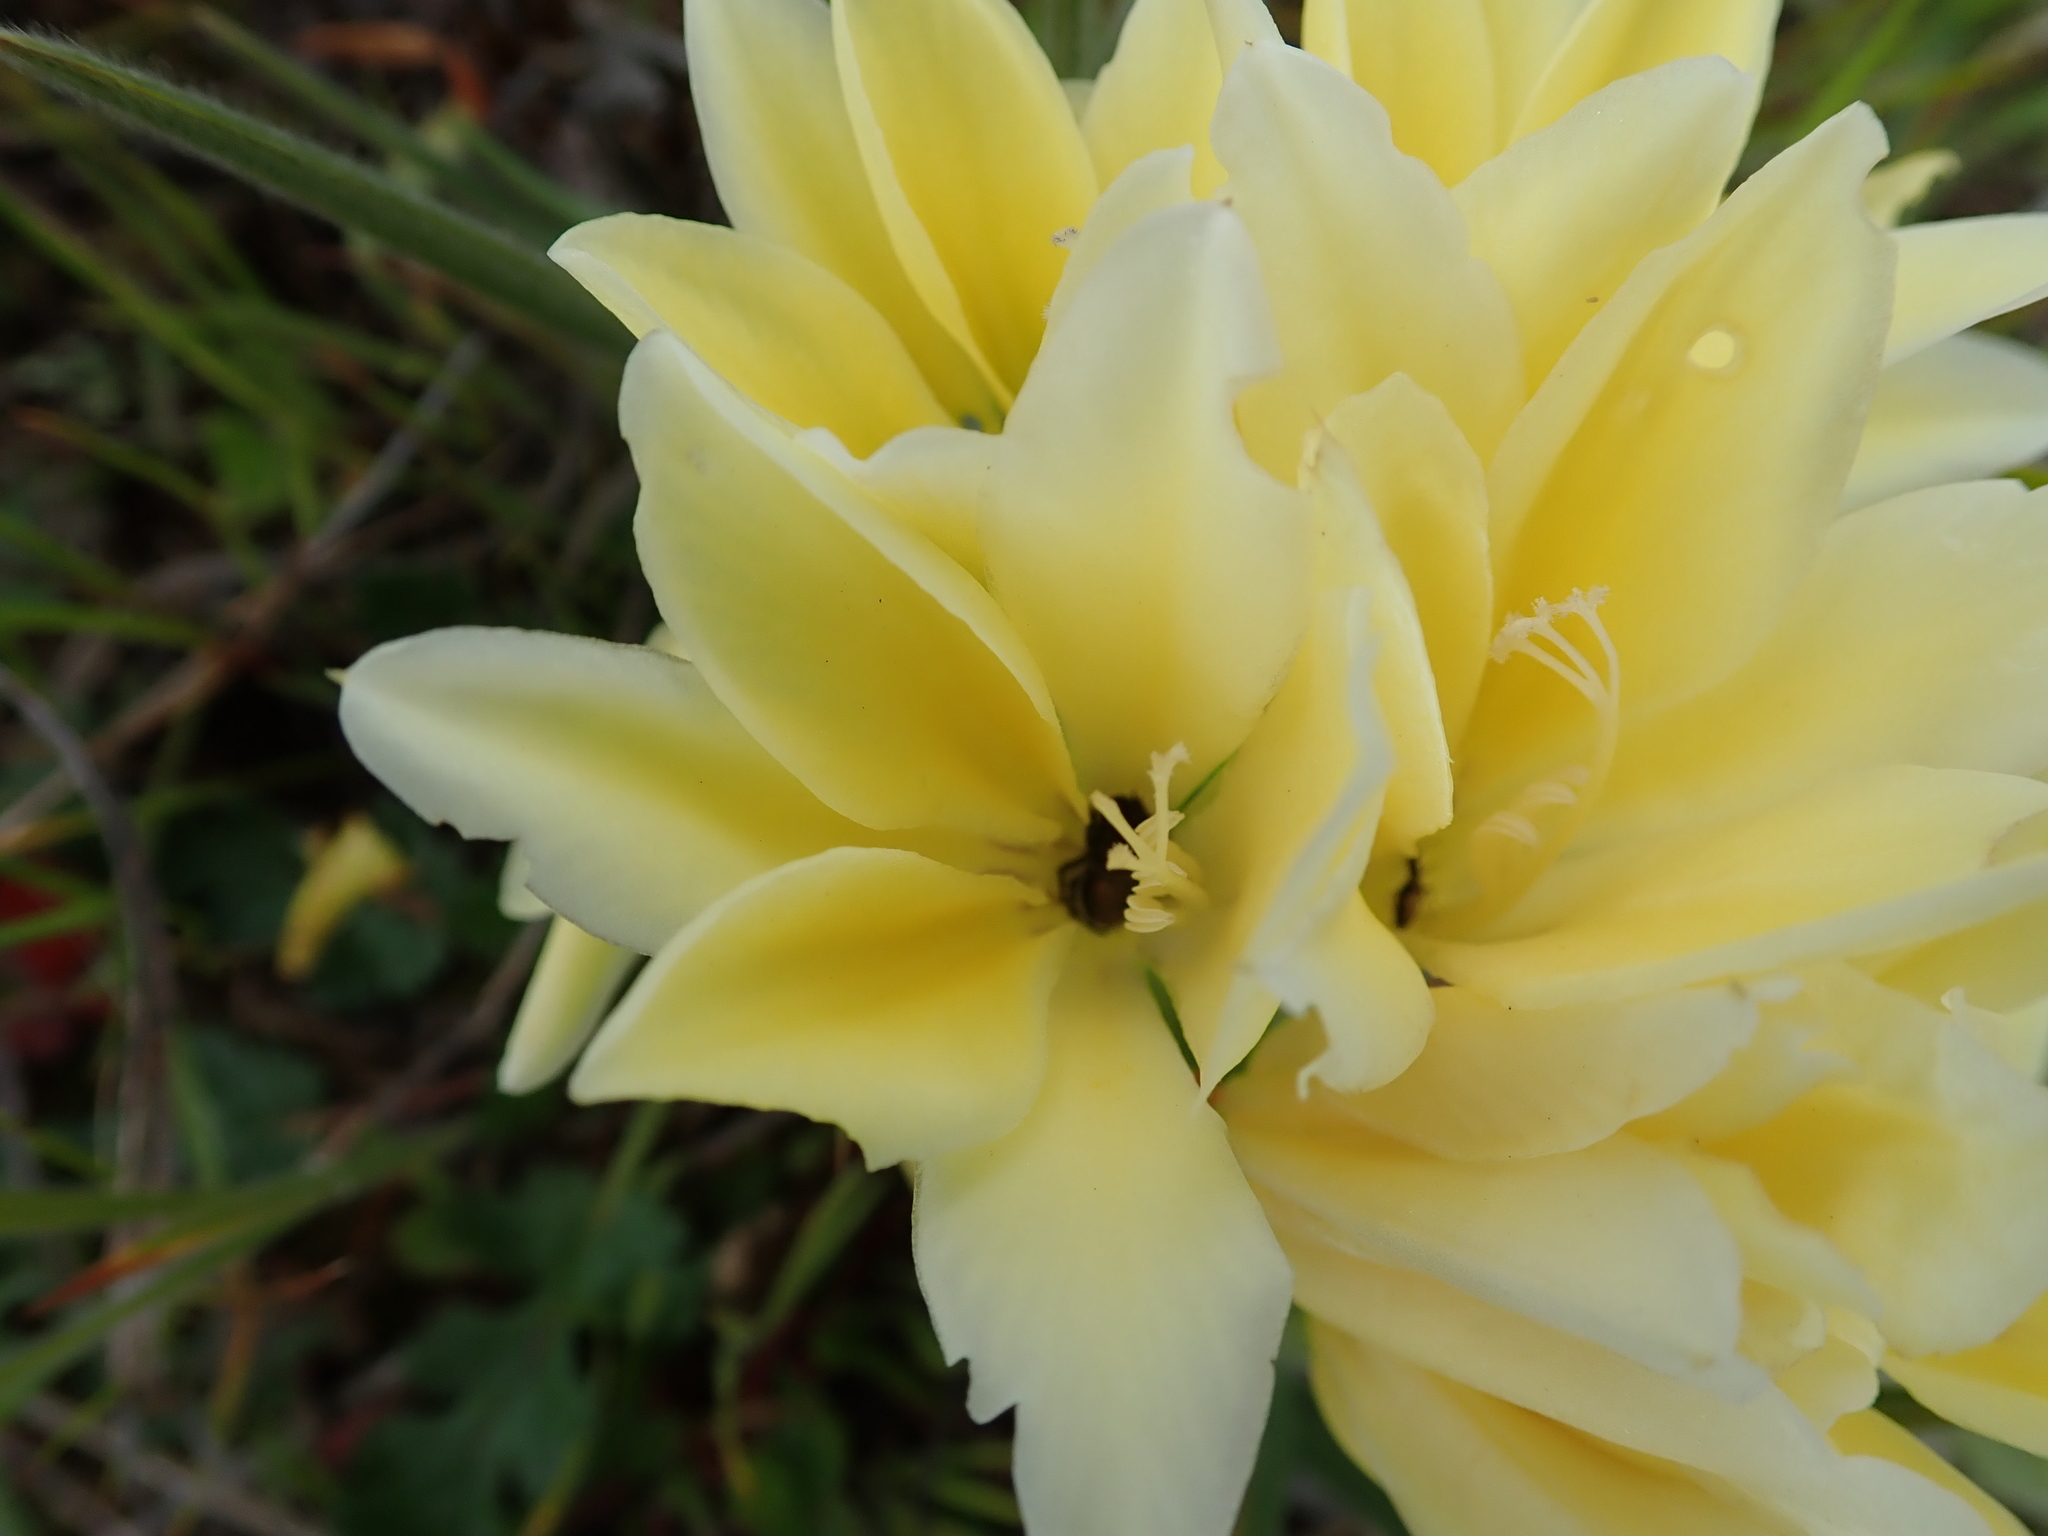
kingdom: Plantae
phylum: Tracheophyta
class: Liliopsida
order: Asparagales
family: Iridaceae
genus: Babiana
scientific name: Babiana vanzijliae
